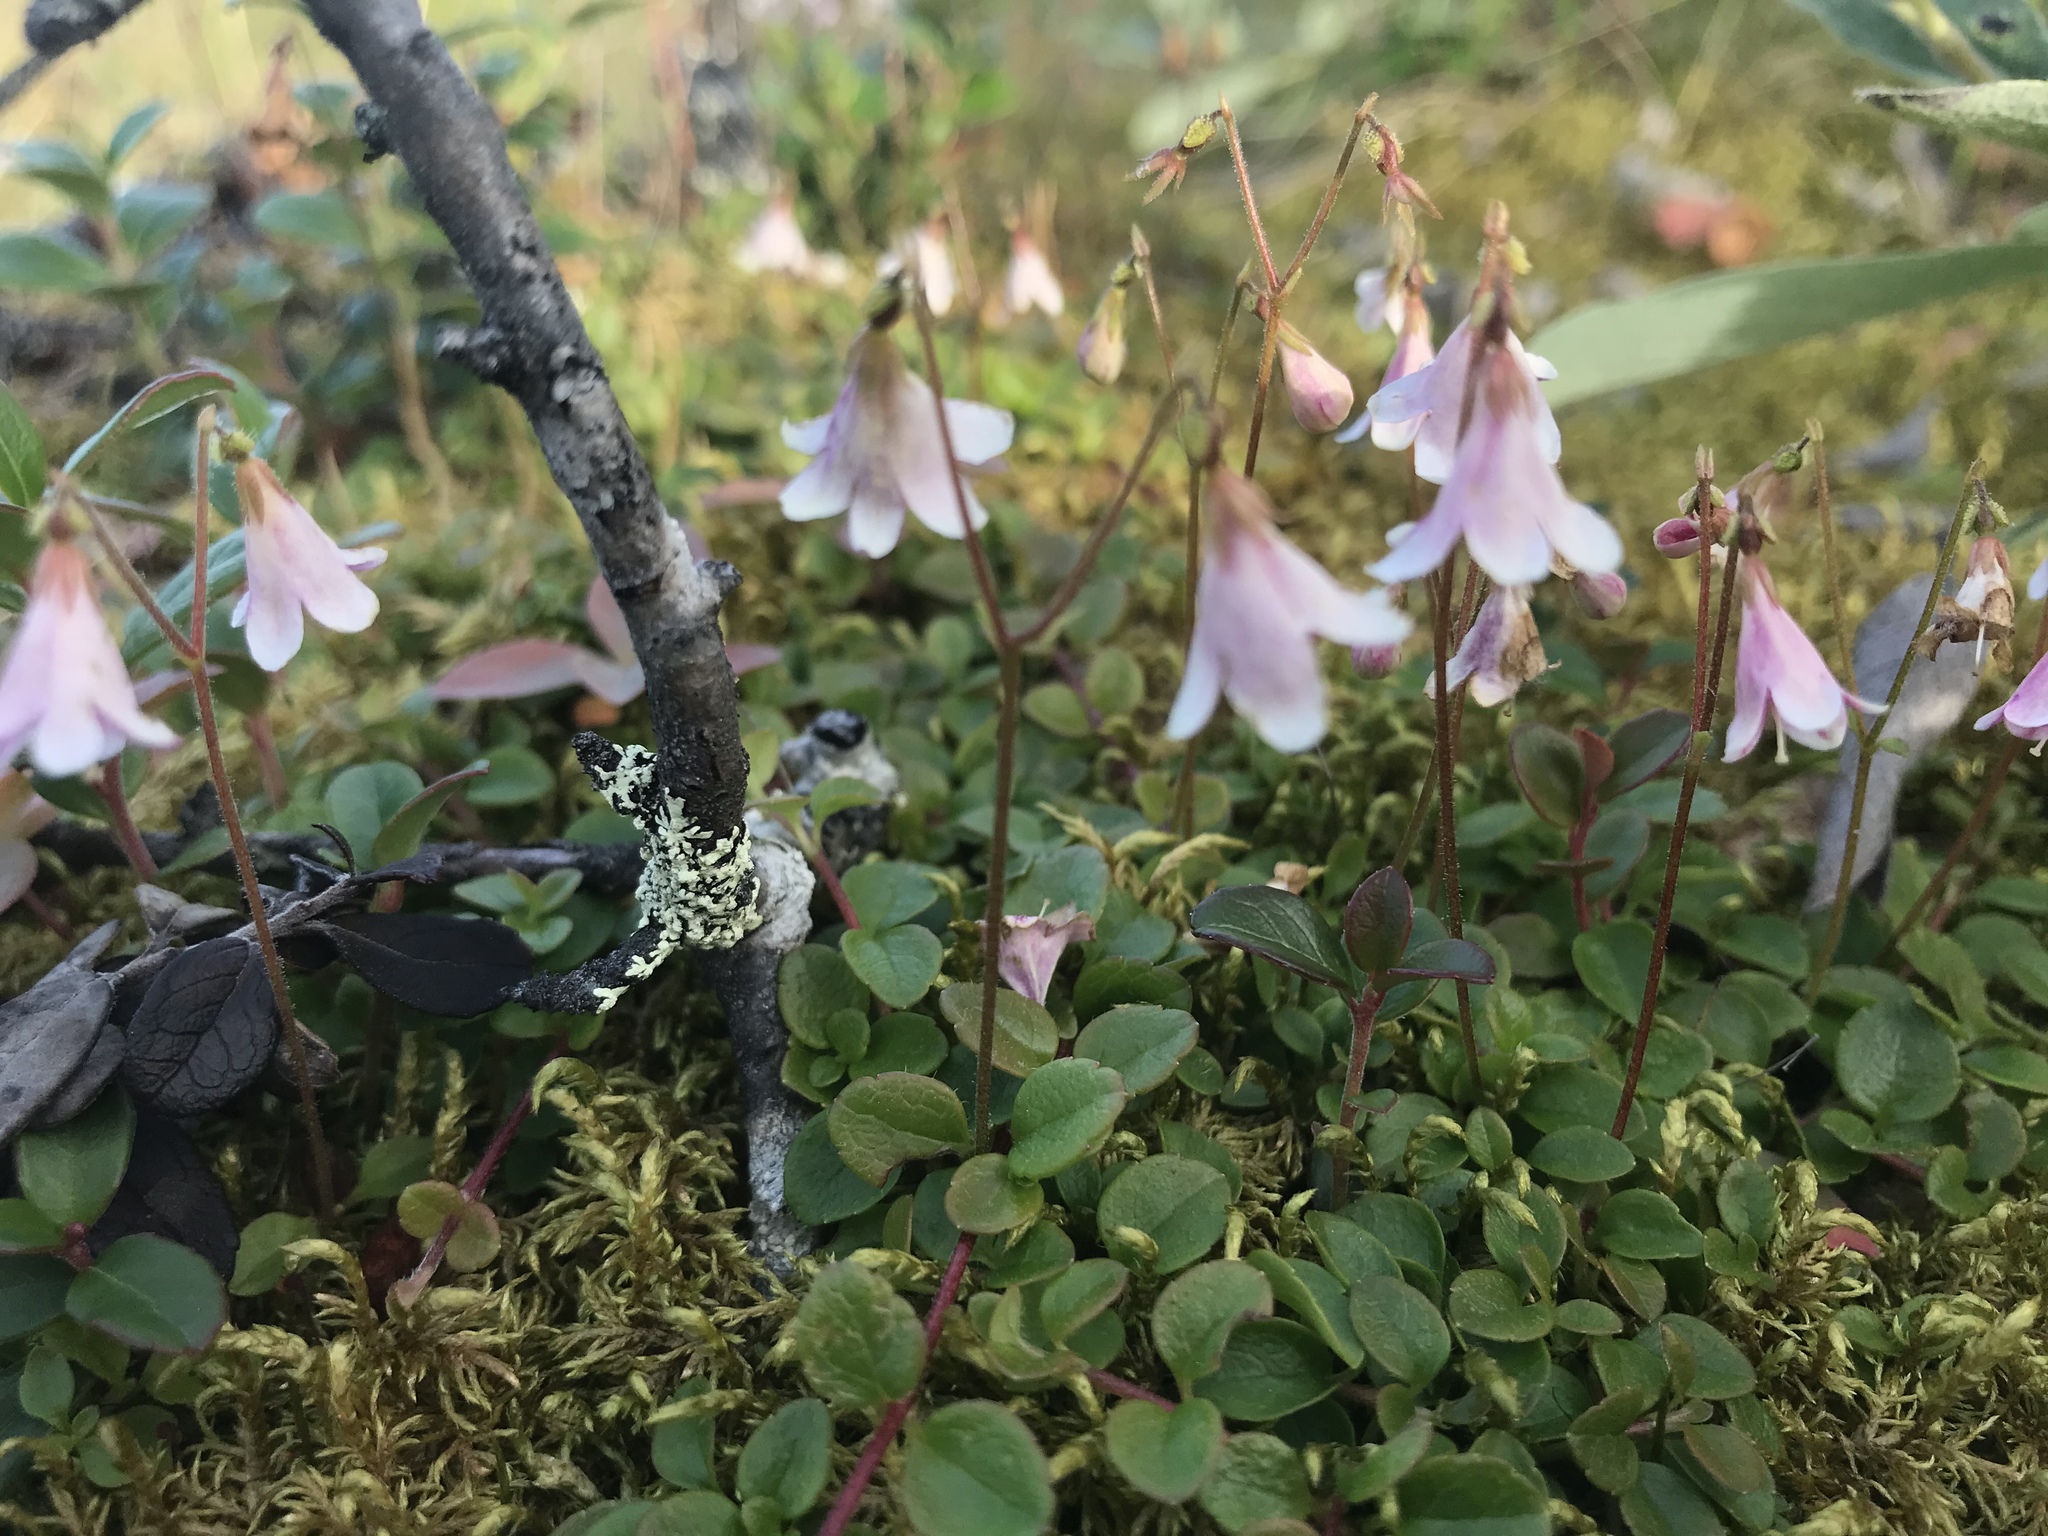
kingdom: Plantae
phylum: Tracheophyta
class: Magnoliopsida
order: Dipsacales
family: Caprifoliaceae
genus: Linnaea
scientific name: Linnaea borealis
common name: Twinflower
